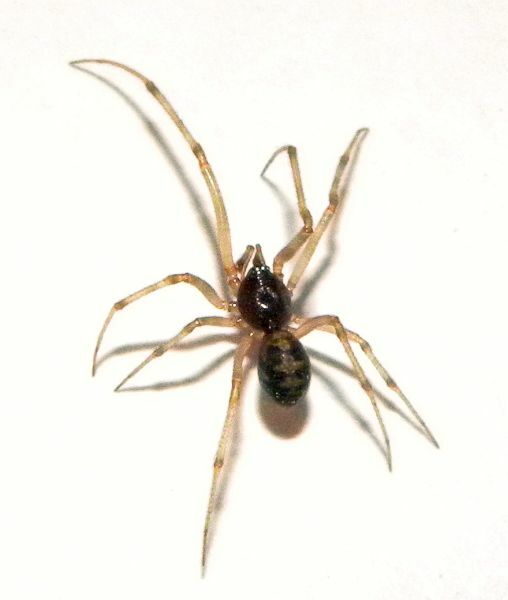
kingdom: Animalia
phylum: Arthropoda
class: Arachnida
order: Araneae
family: Theridiidae
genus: Steatoda
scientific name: Steatoda triangulosa
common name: Triangulate bud spider
